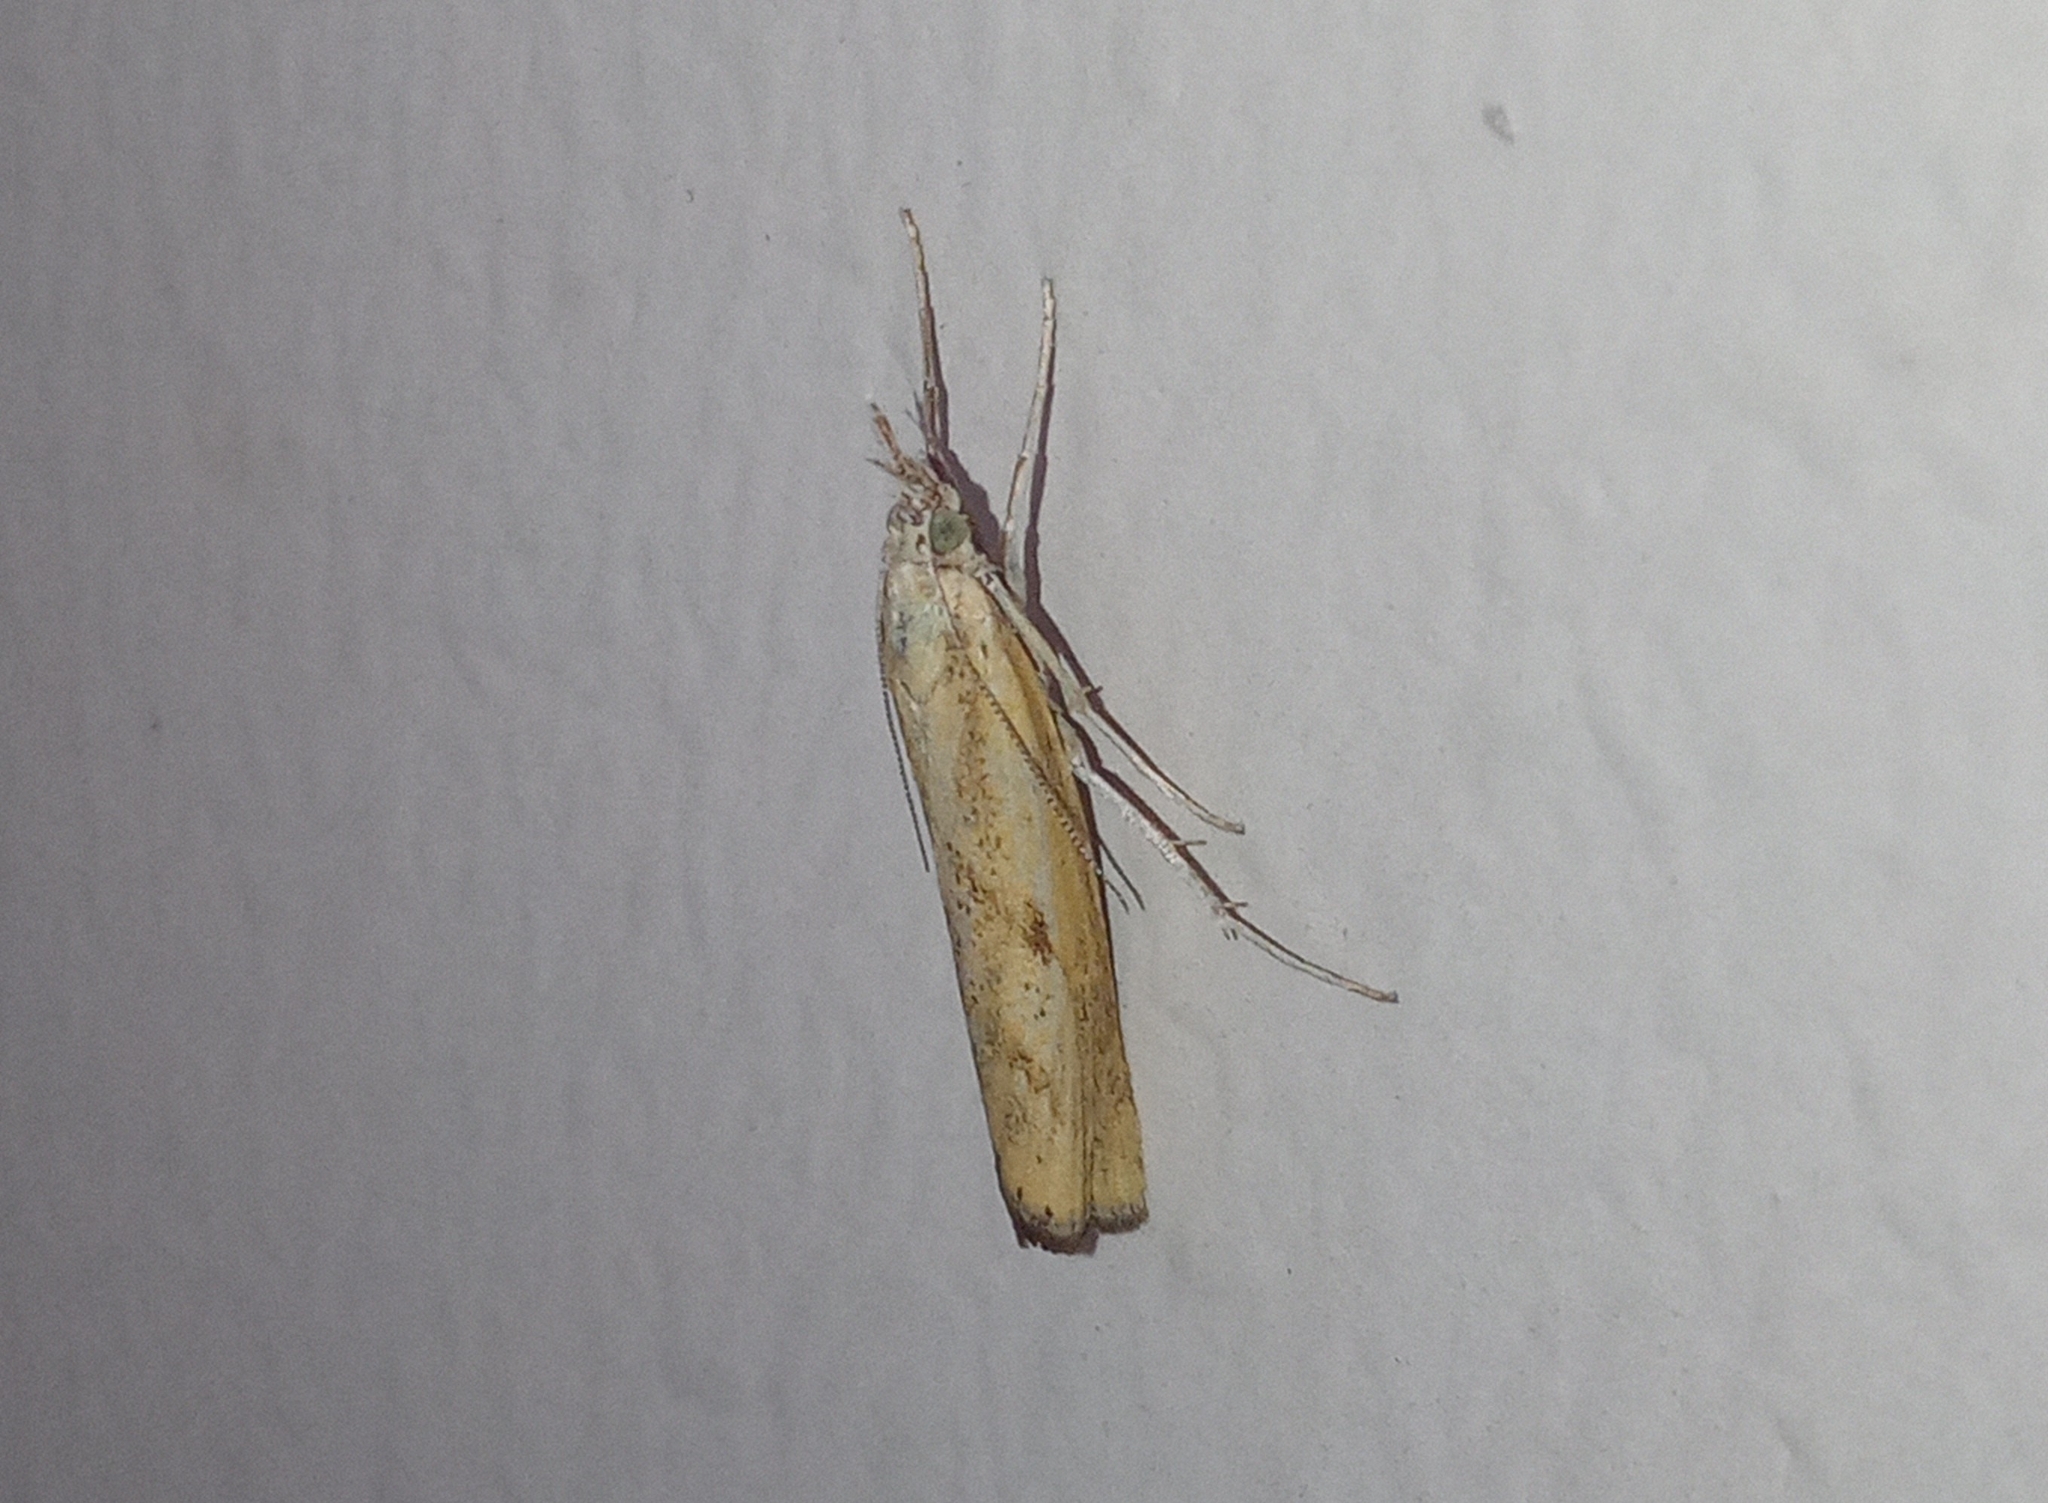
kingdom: Animalia
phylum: Arthropoda
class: Insecta
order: Lepidoptera
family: Crambidae
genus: Agriphila
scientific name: Agriphila inquinatella
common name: Barred grass-veneer
